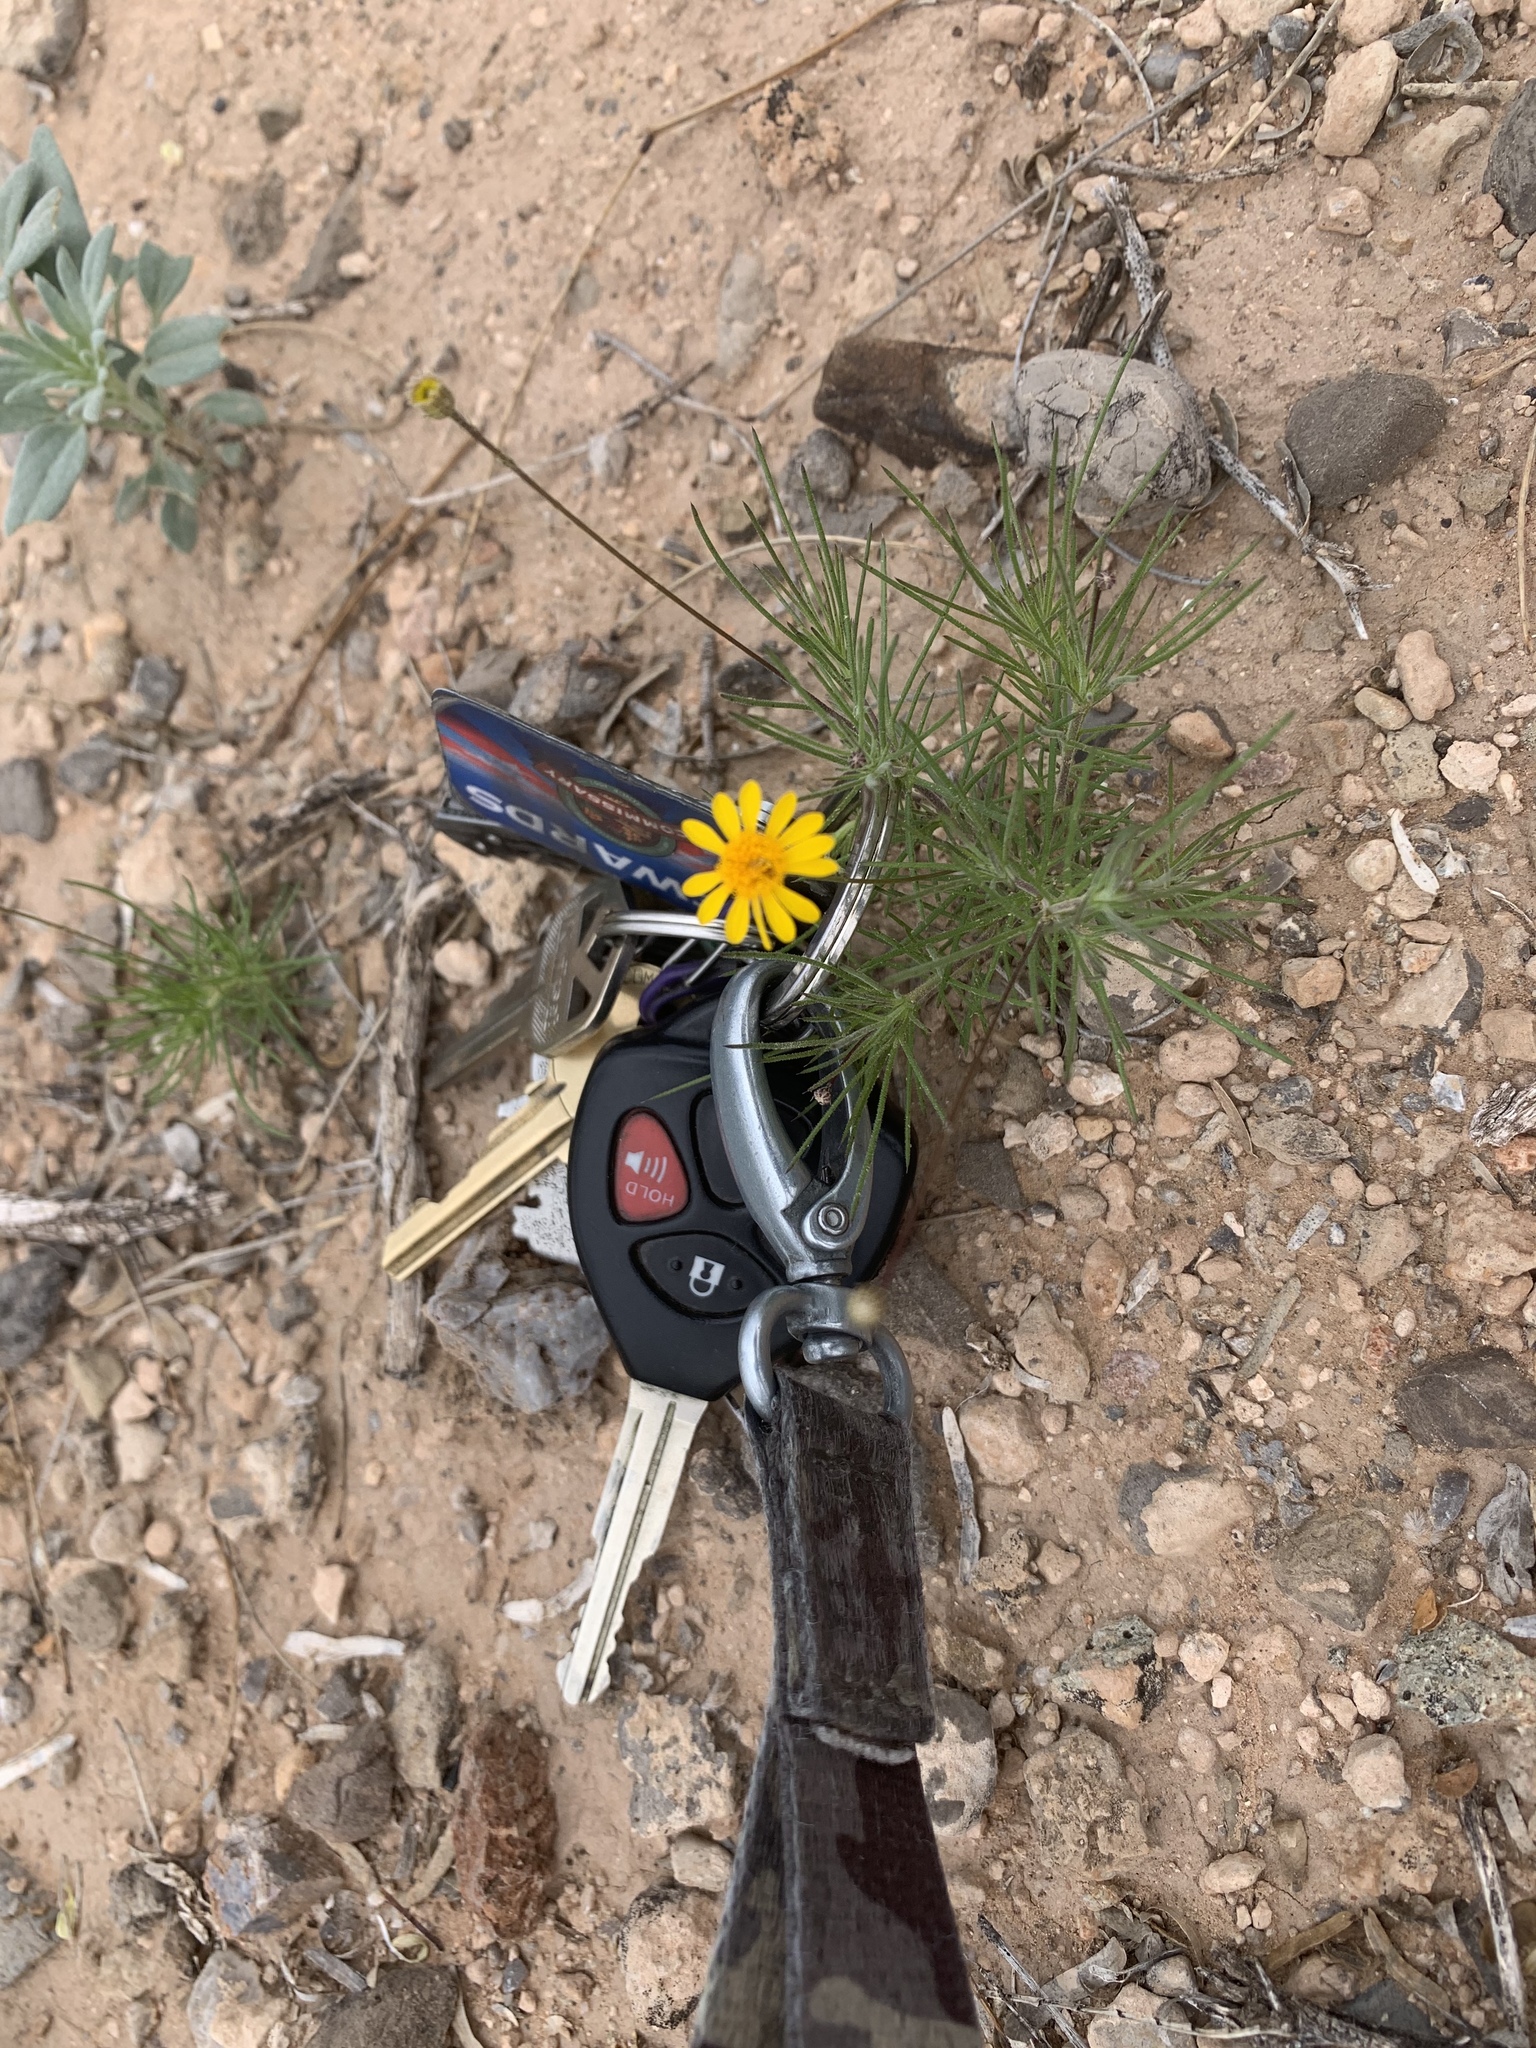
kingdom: Plantae
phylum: Tracheophyta
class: Magnoliopsida
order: Asterales
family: Asteraceae
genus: Thymophylla
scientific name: Thymophylla pentachaeta
